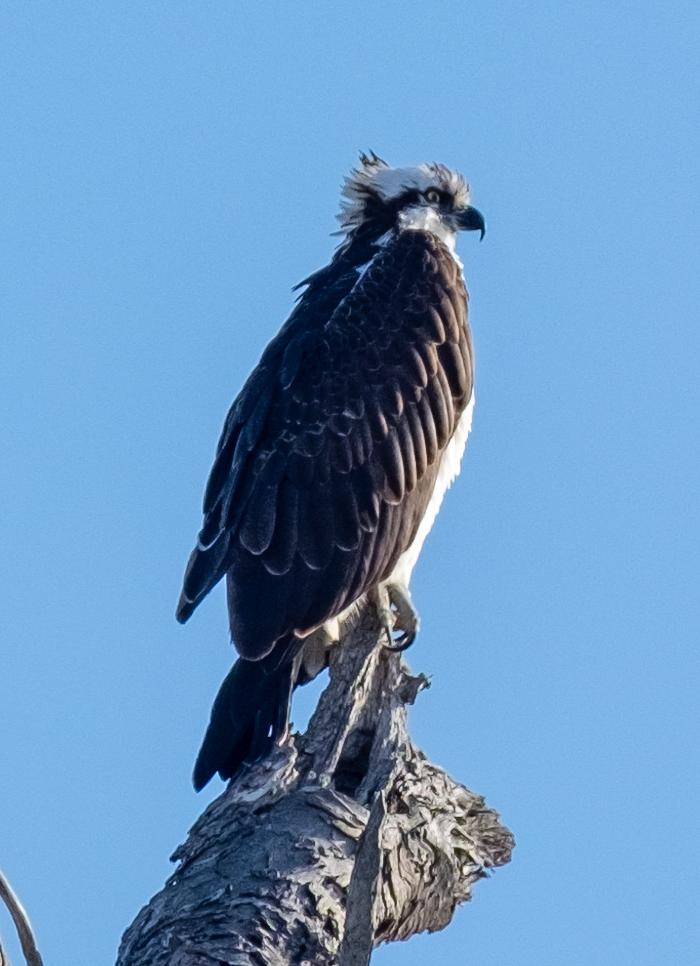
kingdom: Animalia
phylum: Chordata
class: Aves
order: Accipitriformes
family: Pandionidae
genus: Pandion
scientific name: Pandion haliaetus
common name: Osprey
